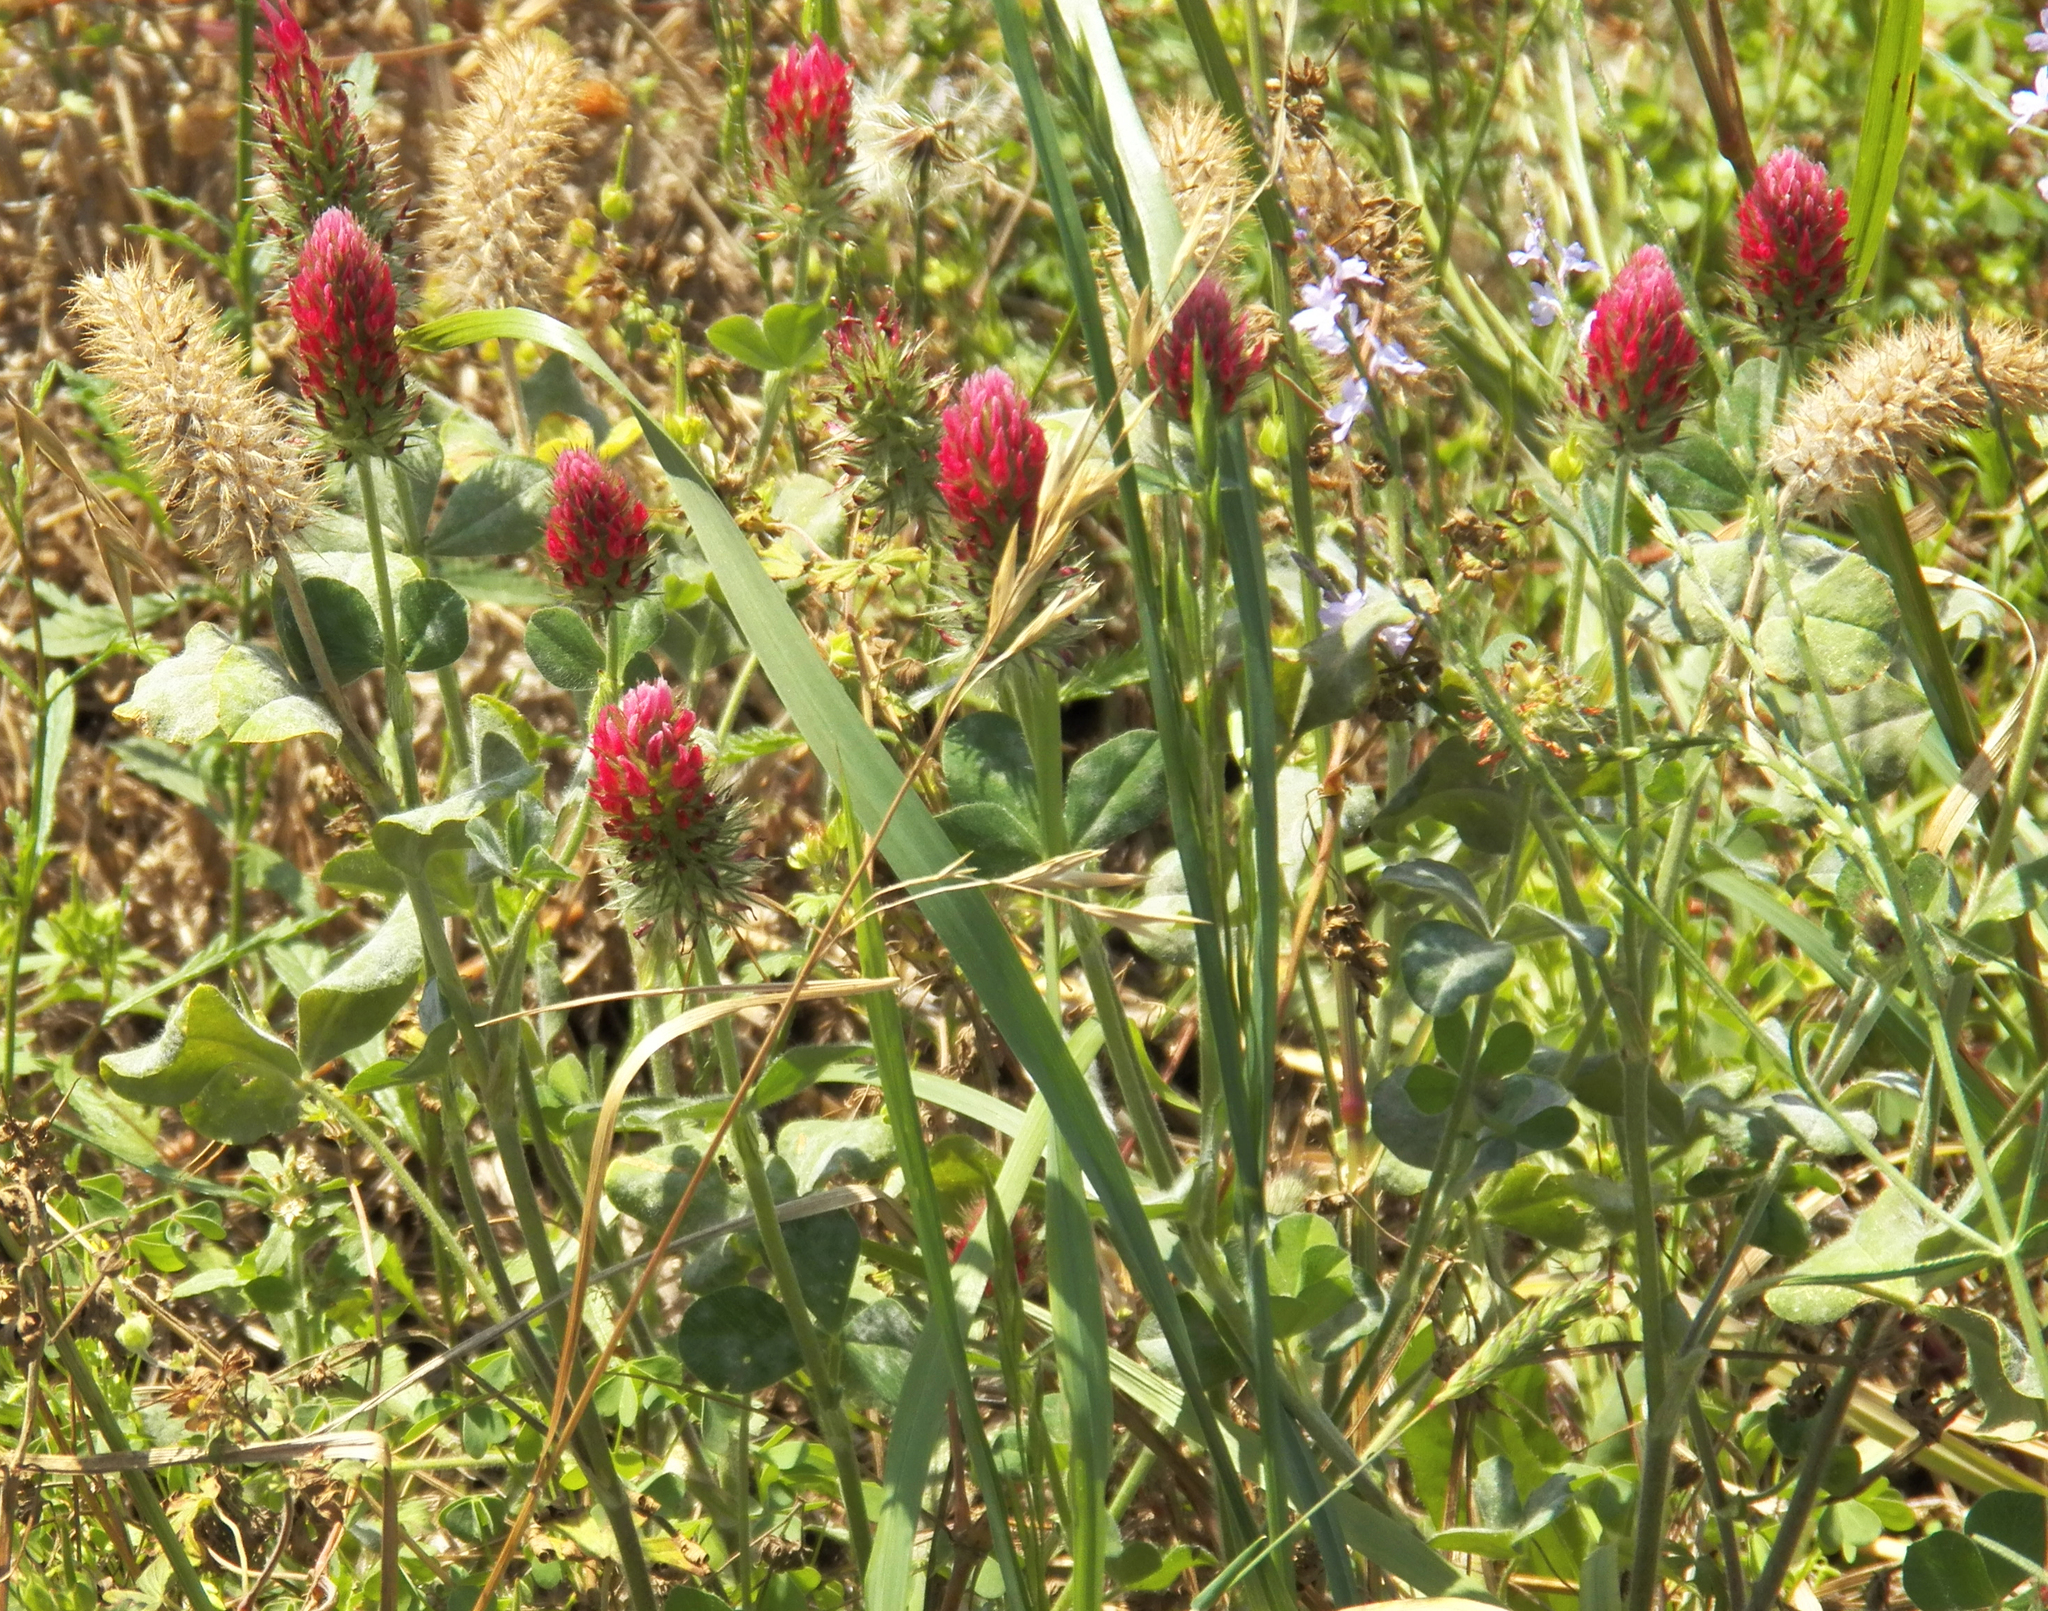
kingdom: Plantae
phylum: Tracheophyta
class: Magnoliopsida
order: Fabales
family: Fabaceae
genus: Trifolium
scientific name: Trifolium incarnatum
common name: Crimson clover
